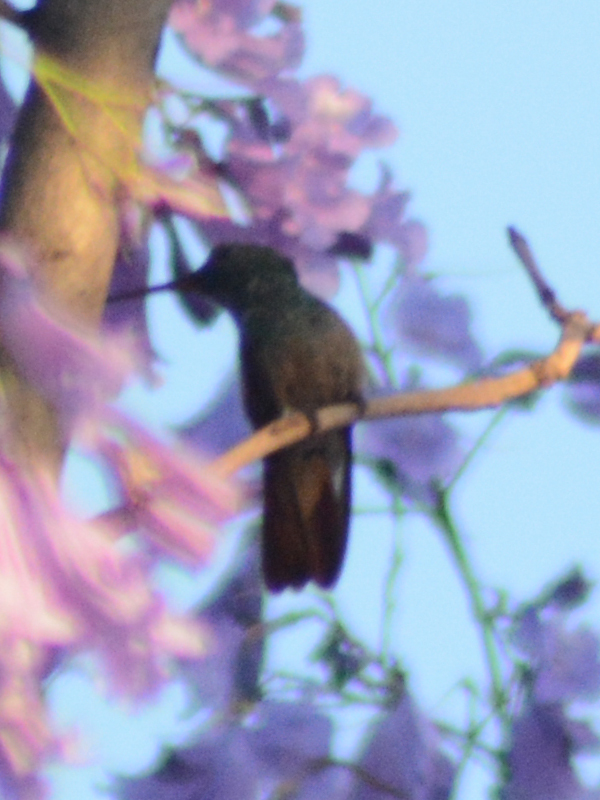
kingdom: Animalia
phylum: Chordata
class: Aves
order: Apodiformes
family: Trochilidae
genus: Saucerottia
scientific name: Saucerottia beryllina
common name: Berylline hummingbird
